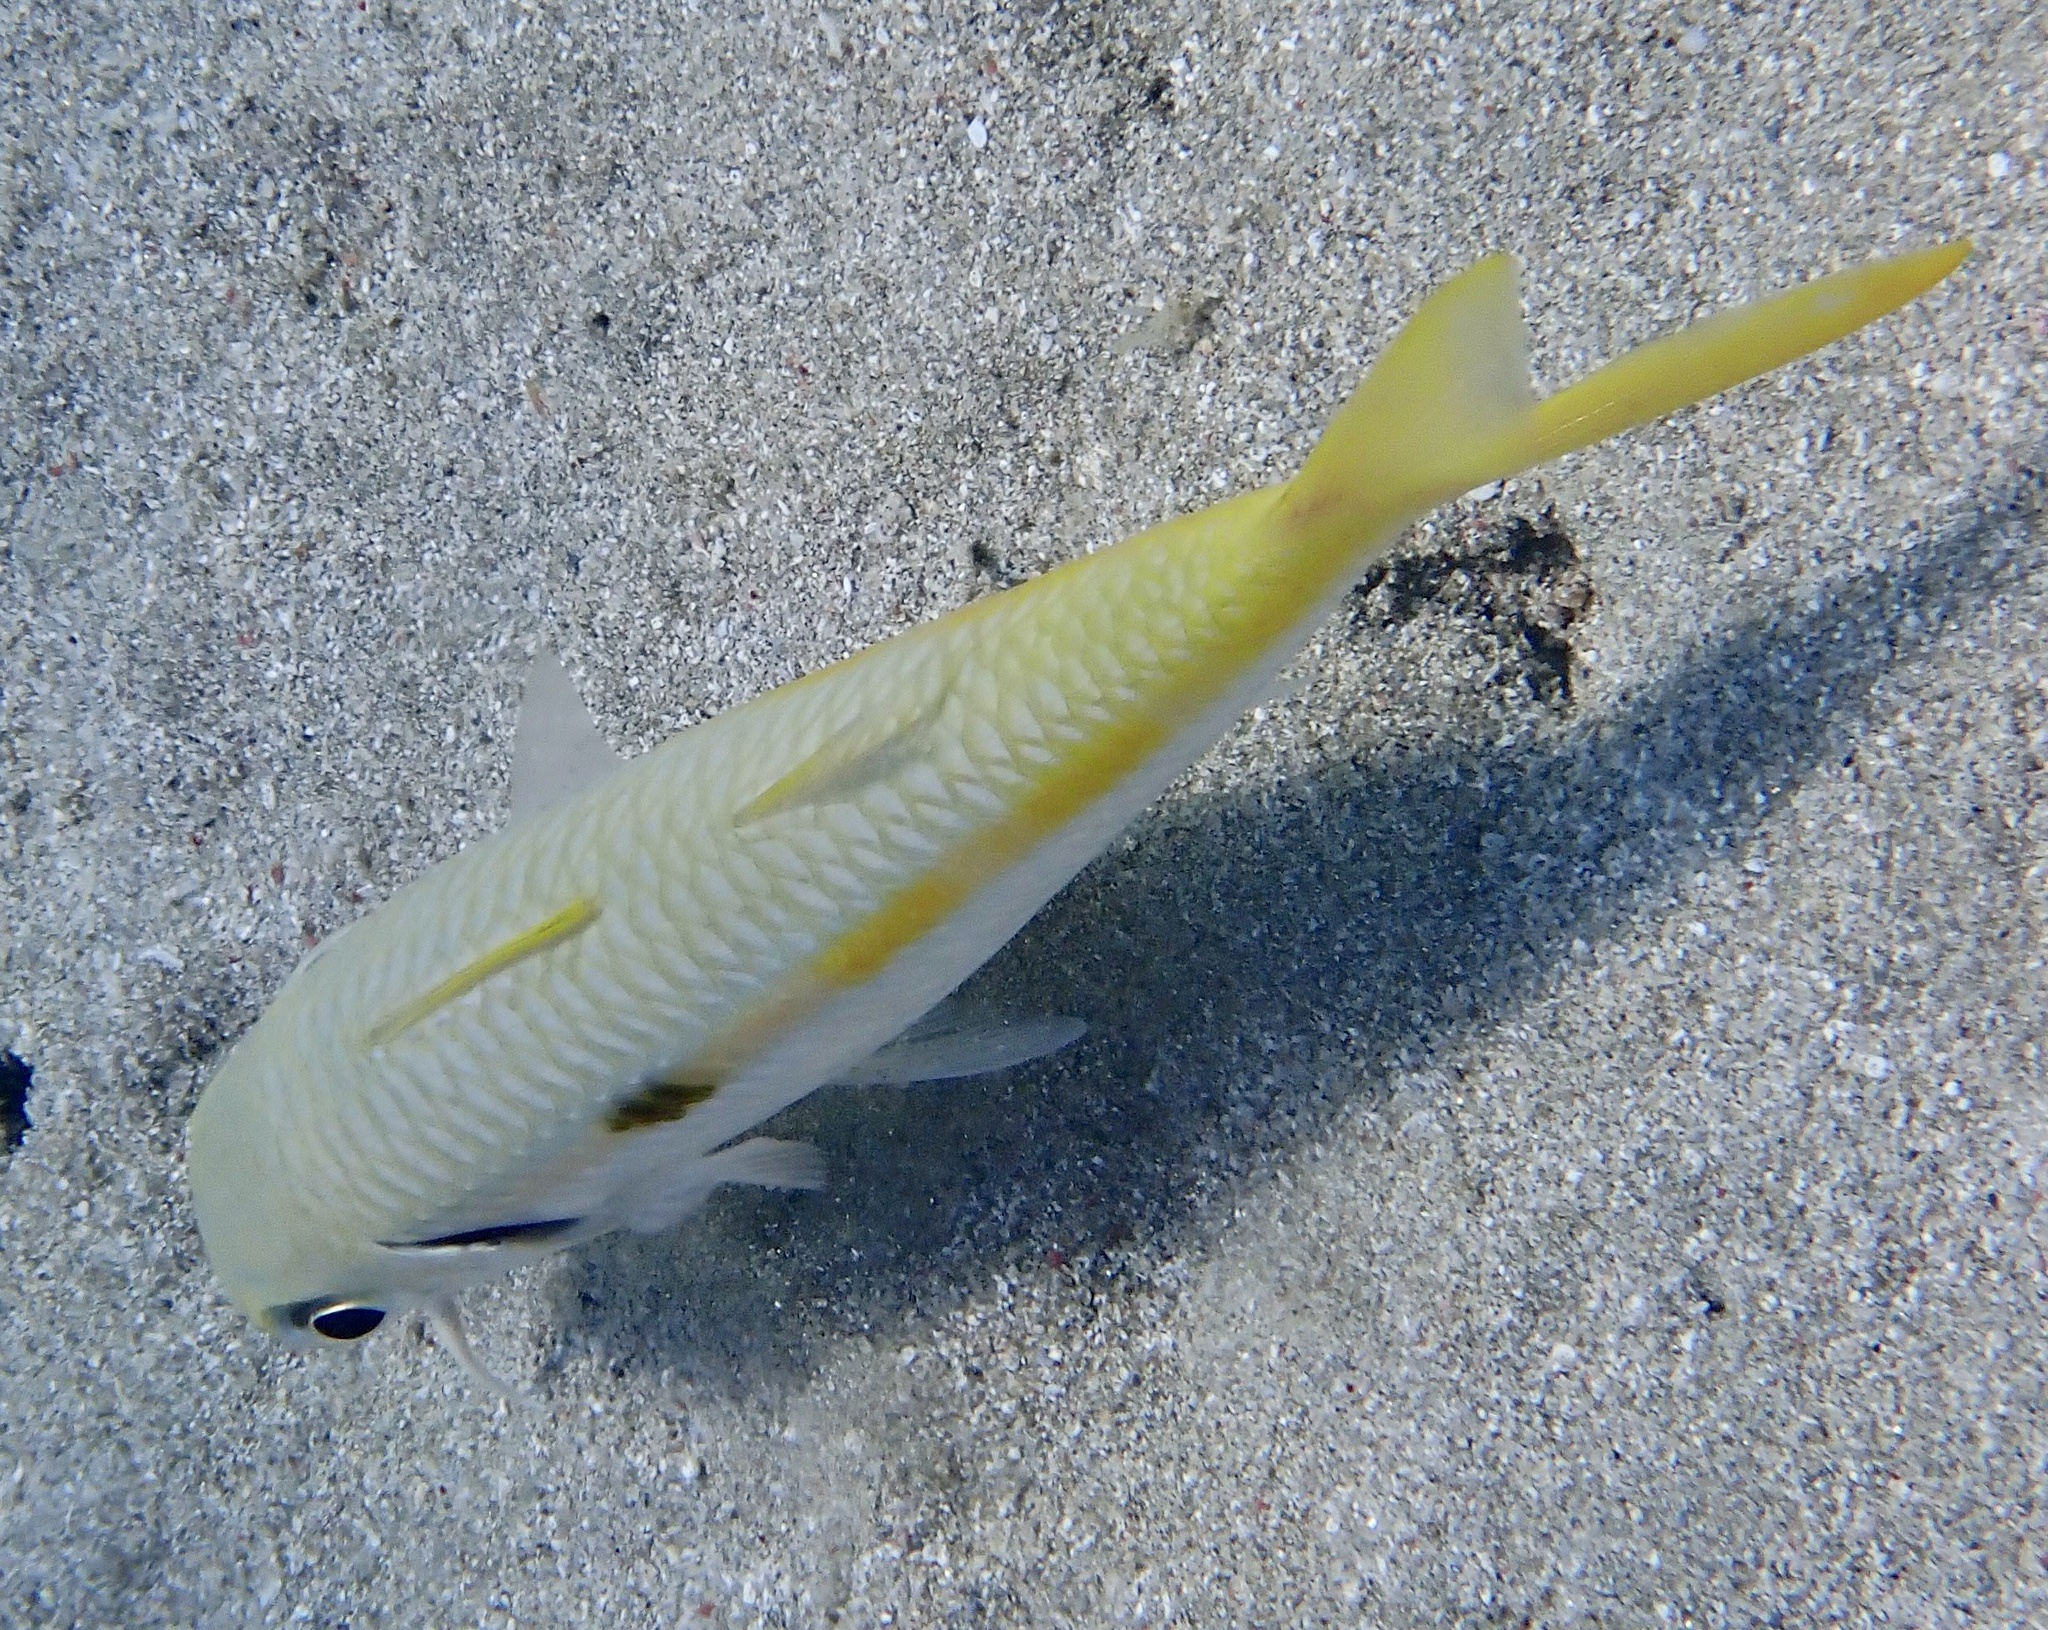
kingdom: Animalia
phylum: Chordata
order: Perciformes
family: Mullidae
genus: Mulloidichthys
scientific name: Mulloidichthys flavolineatus
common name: Yellowstripe goatfish
